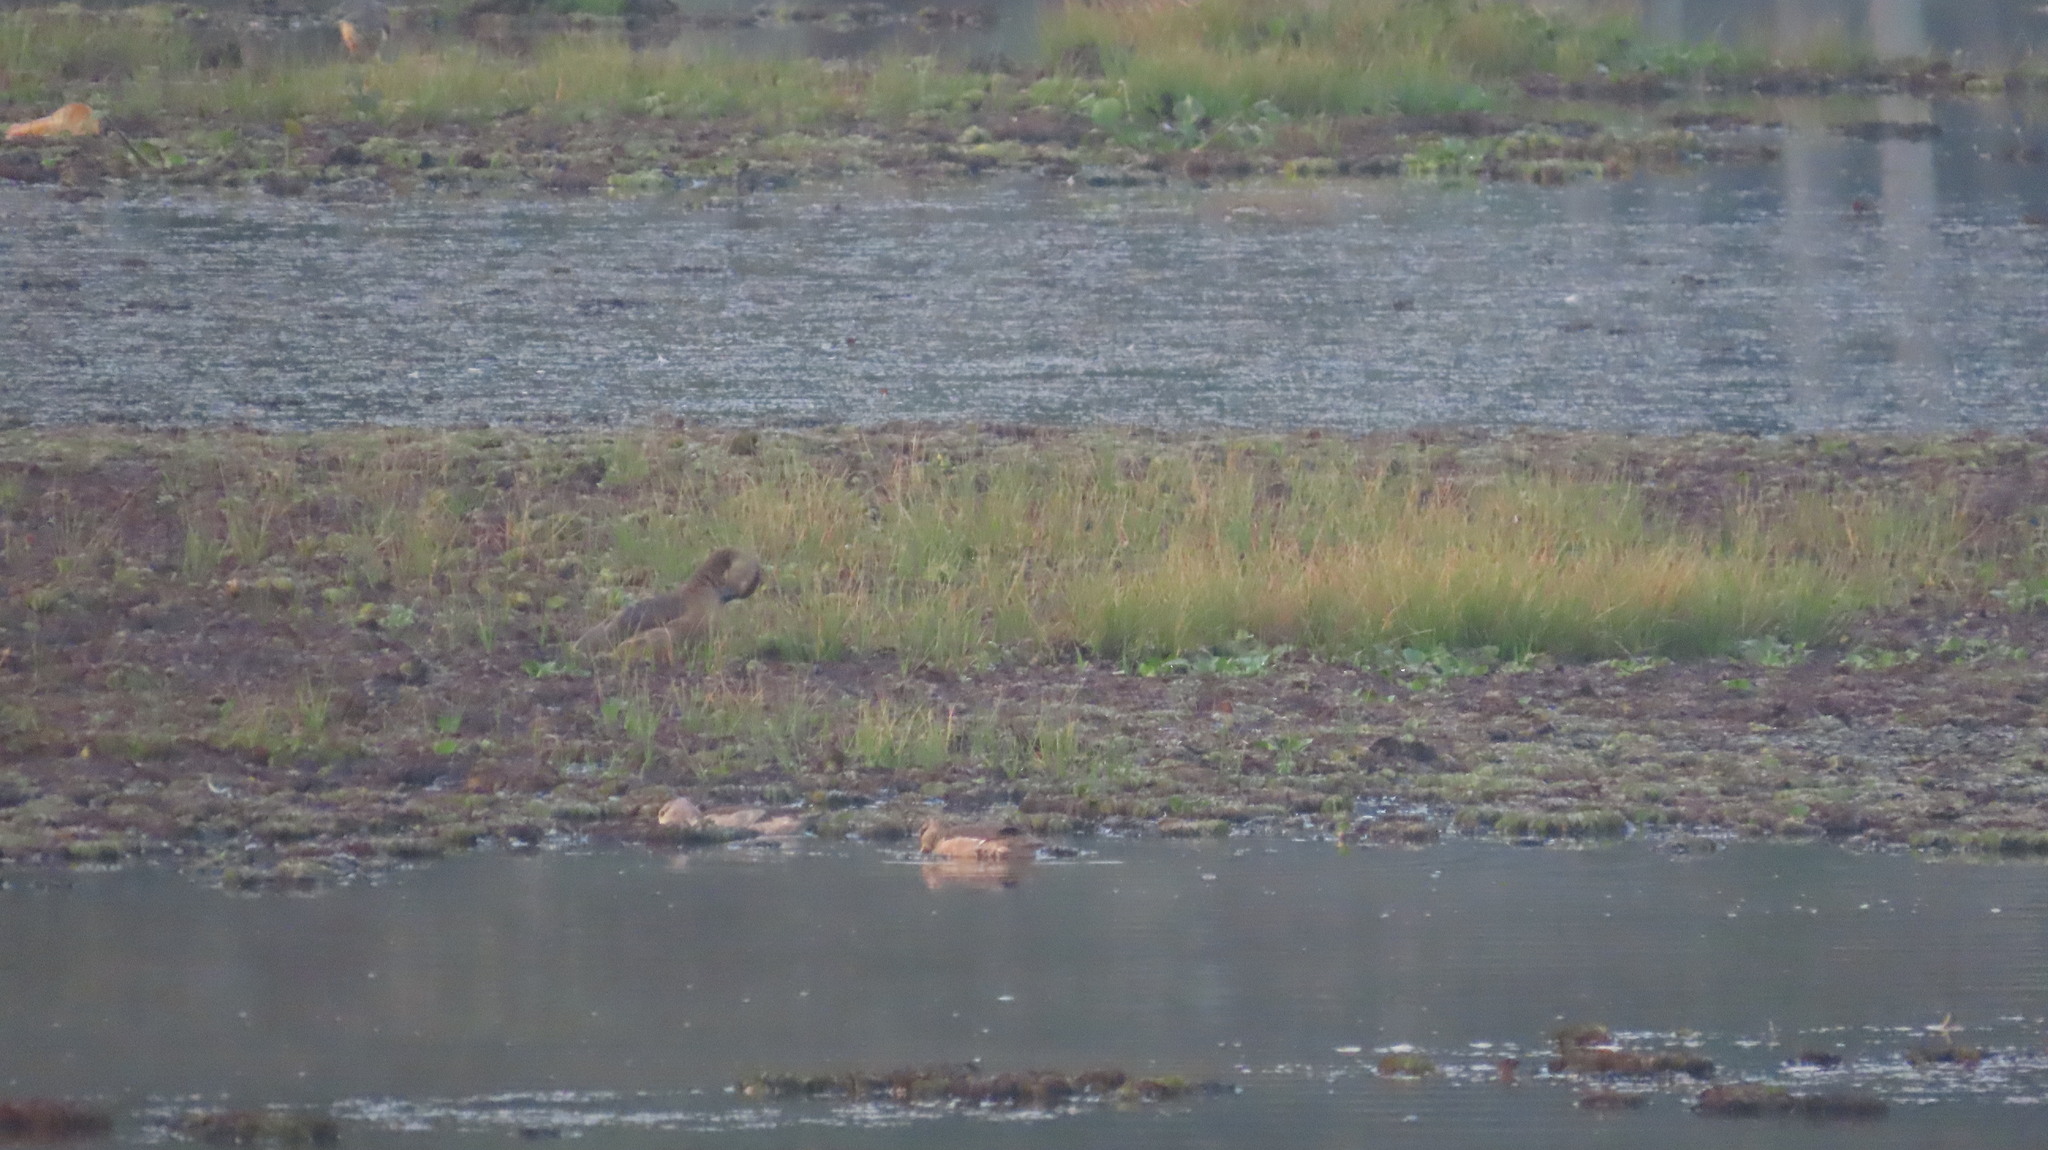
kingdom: Animalia
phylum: Chordata
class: Aves
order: Anseriformes
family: Anatidae
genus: Dendrocygna
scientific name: Dendrocygna javanica
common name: Lesser whistling-duck
